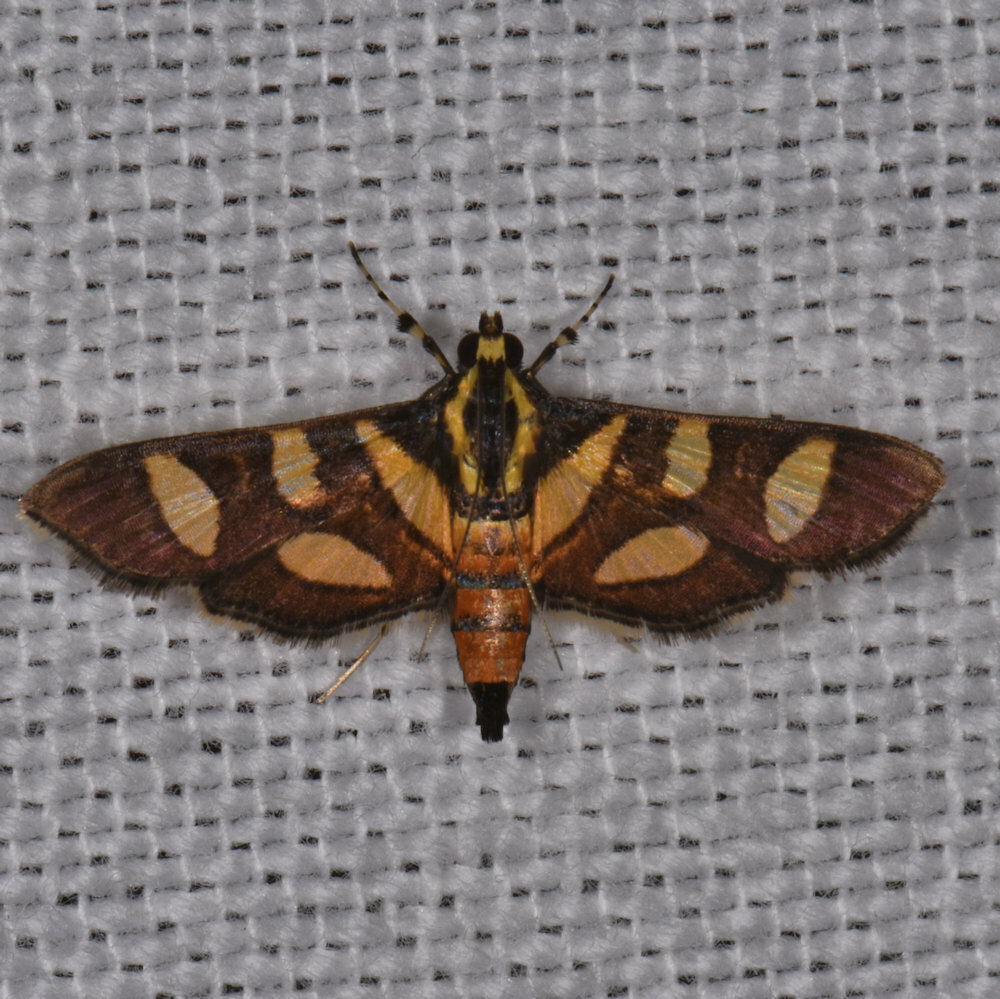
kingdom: Animalia
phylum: Arthropoda
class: Insecta
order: Lepidoptera
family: Crambidae
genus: Syngamia
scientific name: Syngamia florella
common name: Orange-spotted flower moth
